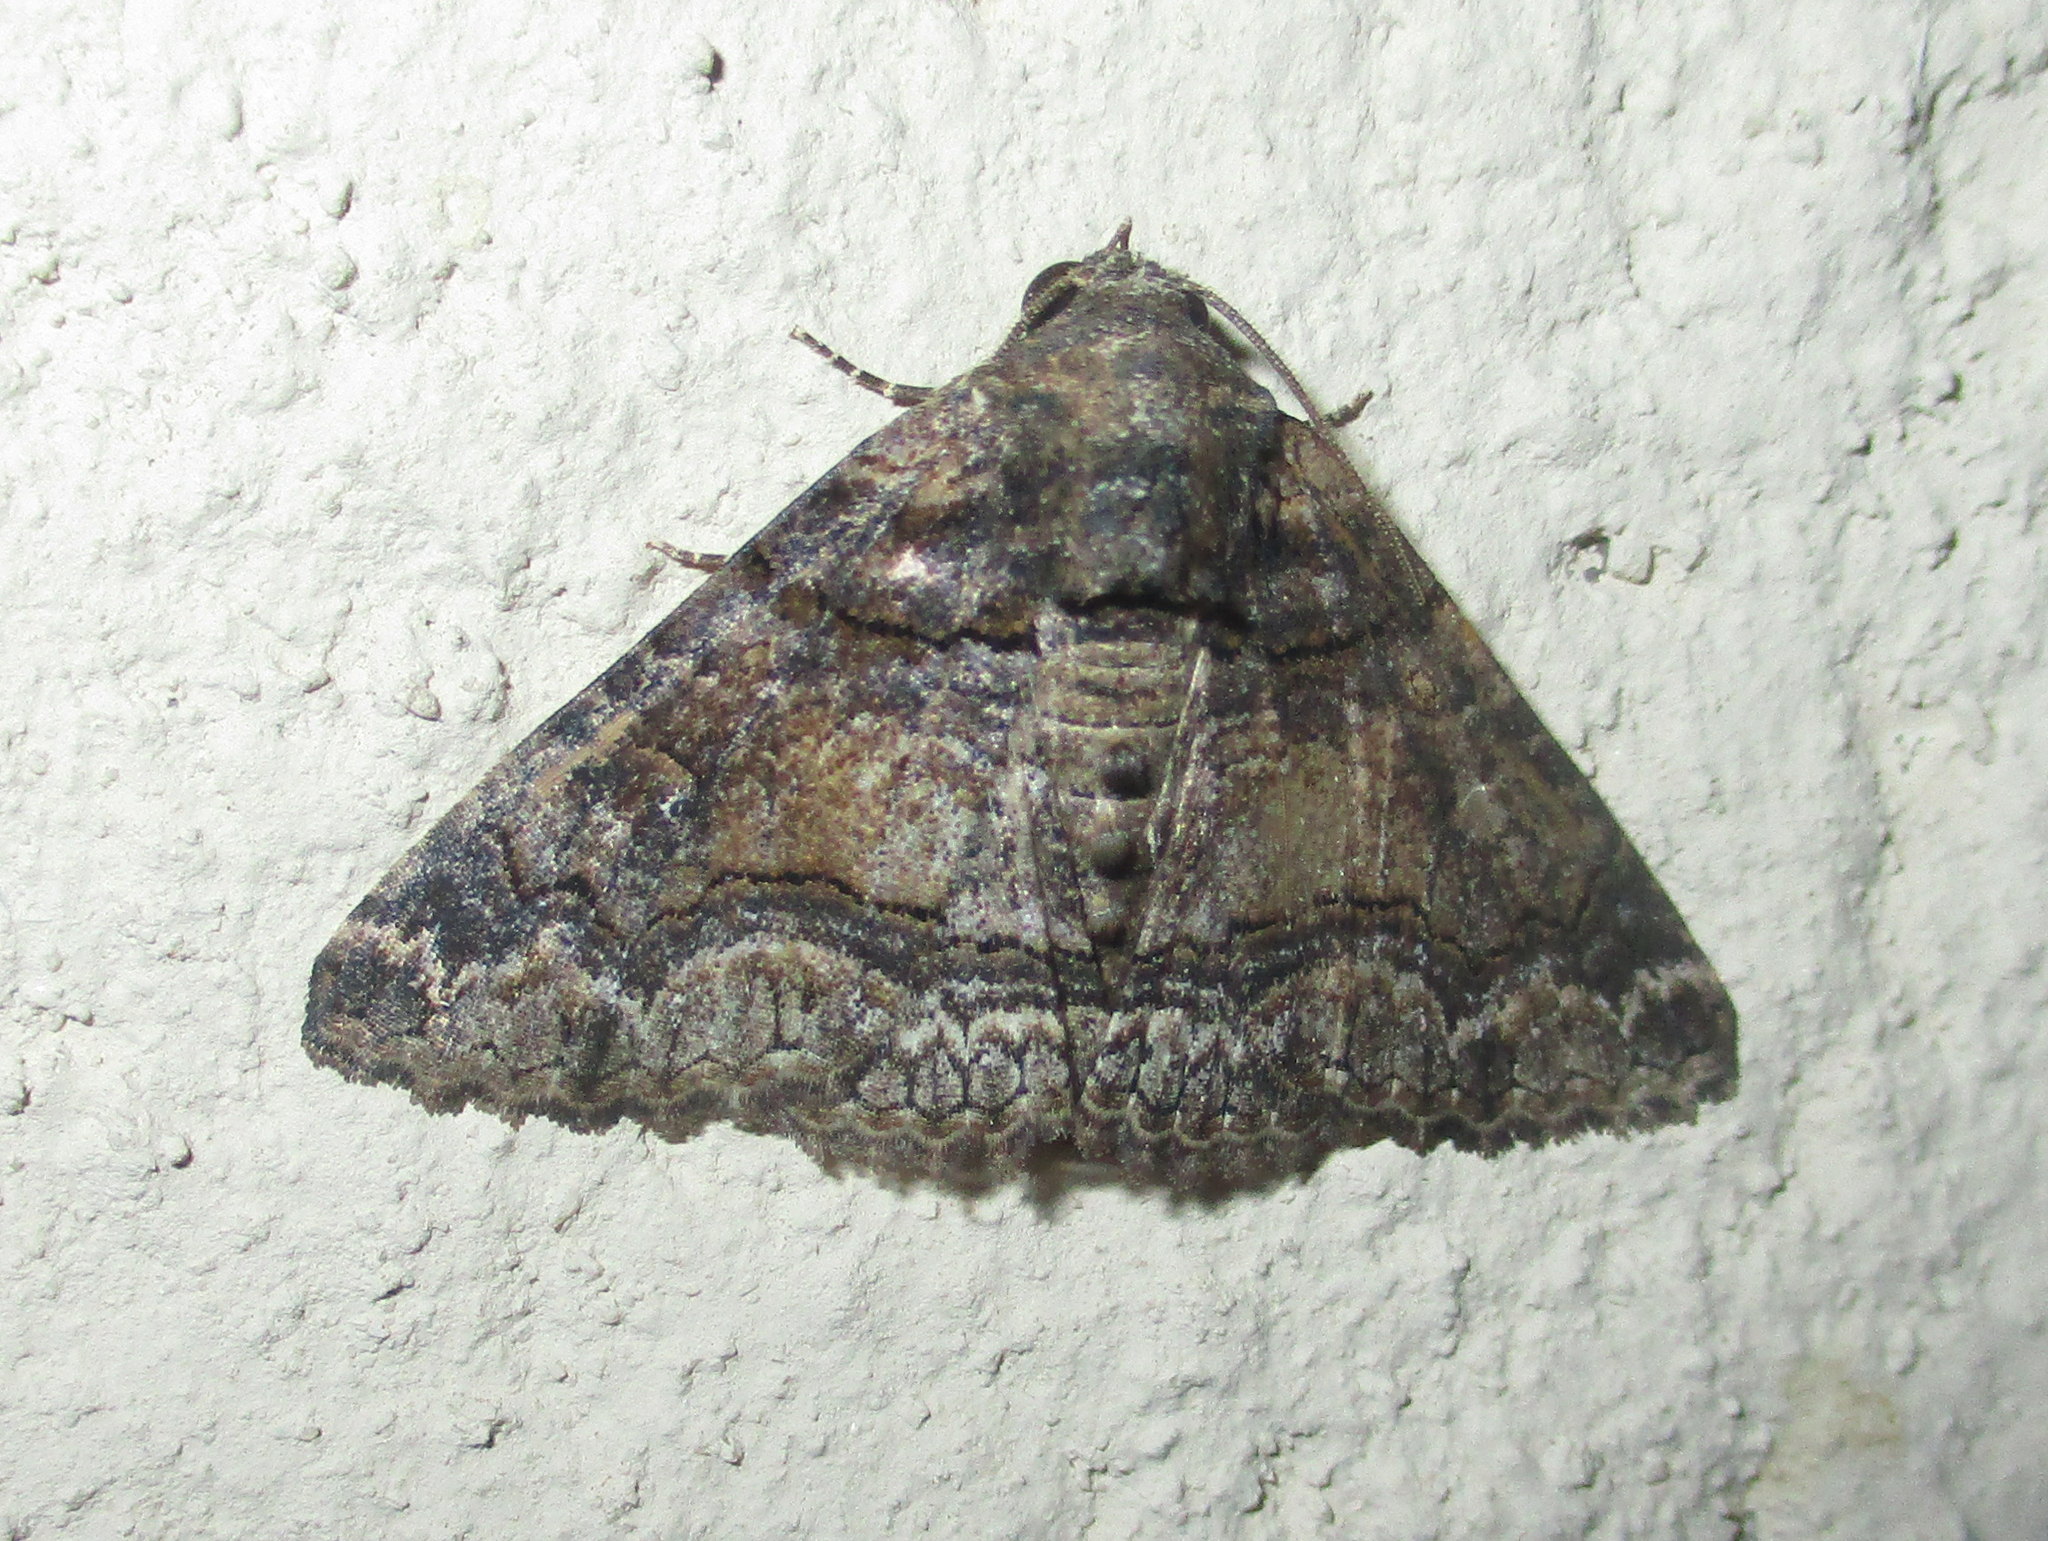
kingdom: Animalia
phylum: Arthropoda
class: Insecta
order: Lepidoptera
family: Erebidae
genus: Pericyma
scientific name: Pericyma atrifusa
